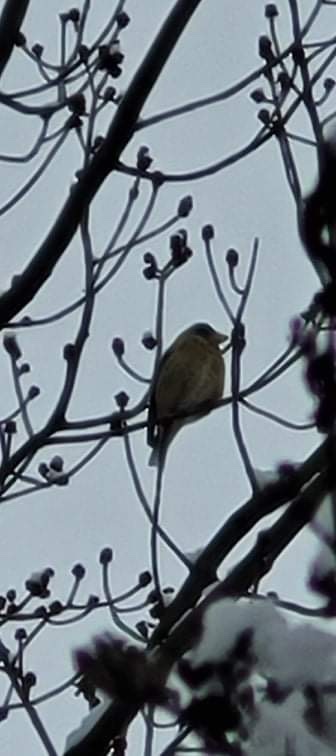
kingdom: Animalia
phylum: Chordata
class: Aves
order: Passeriformes
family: Fringillidae
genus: Hesperiphona
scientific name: Hesperiphona vespertina
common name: Evening grosbeak
